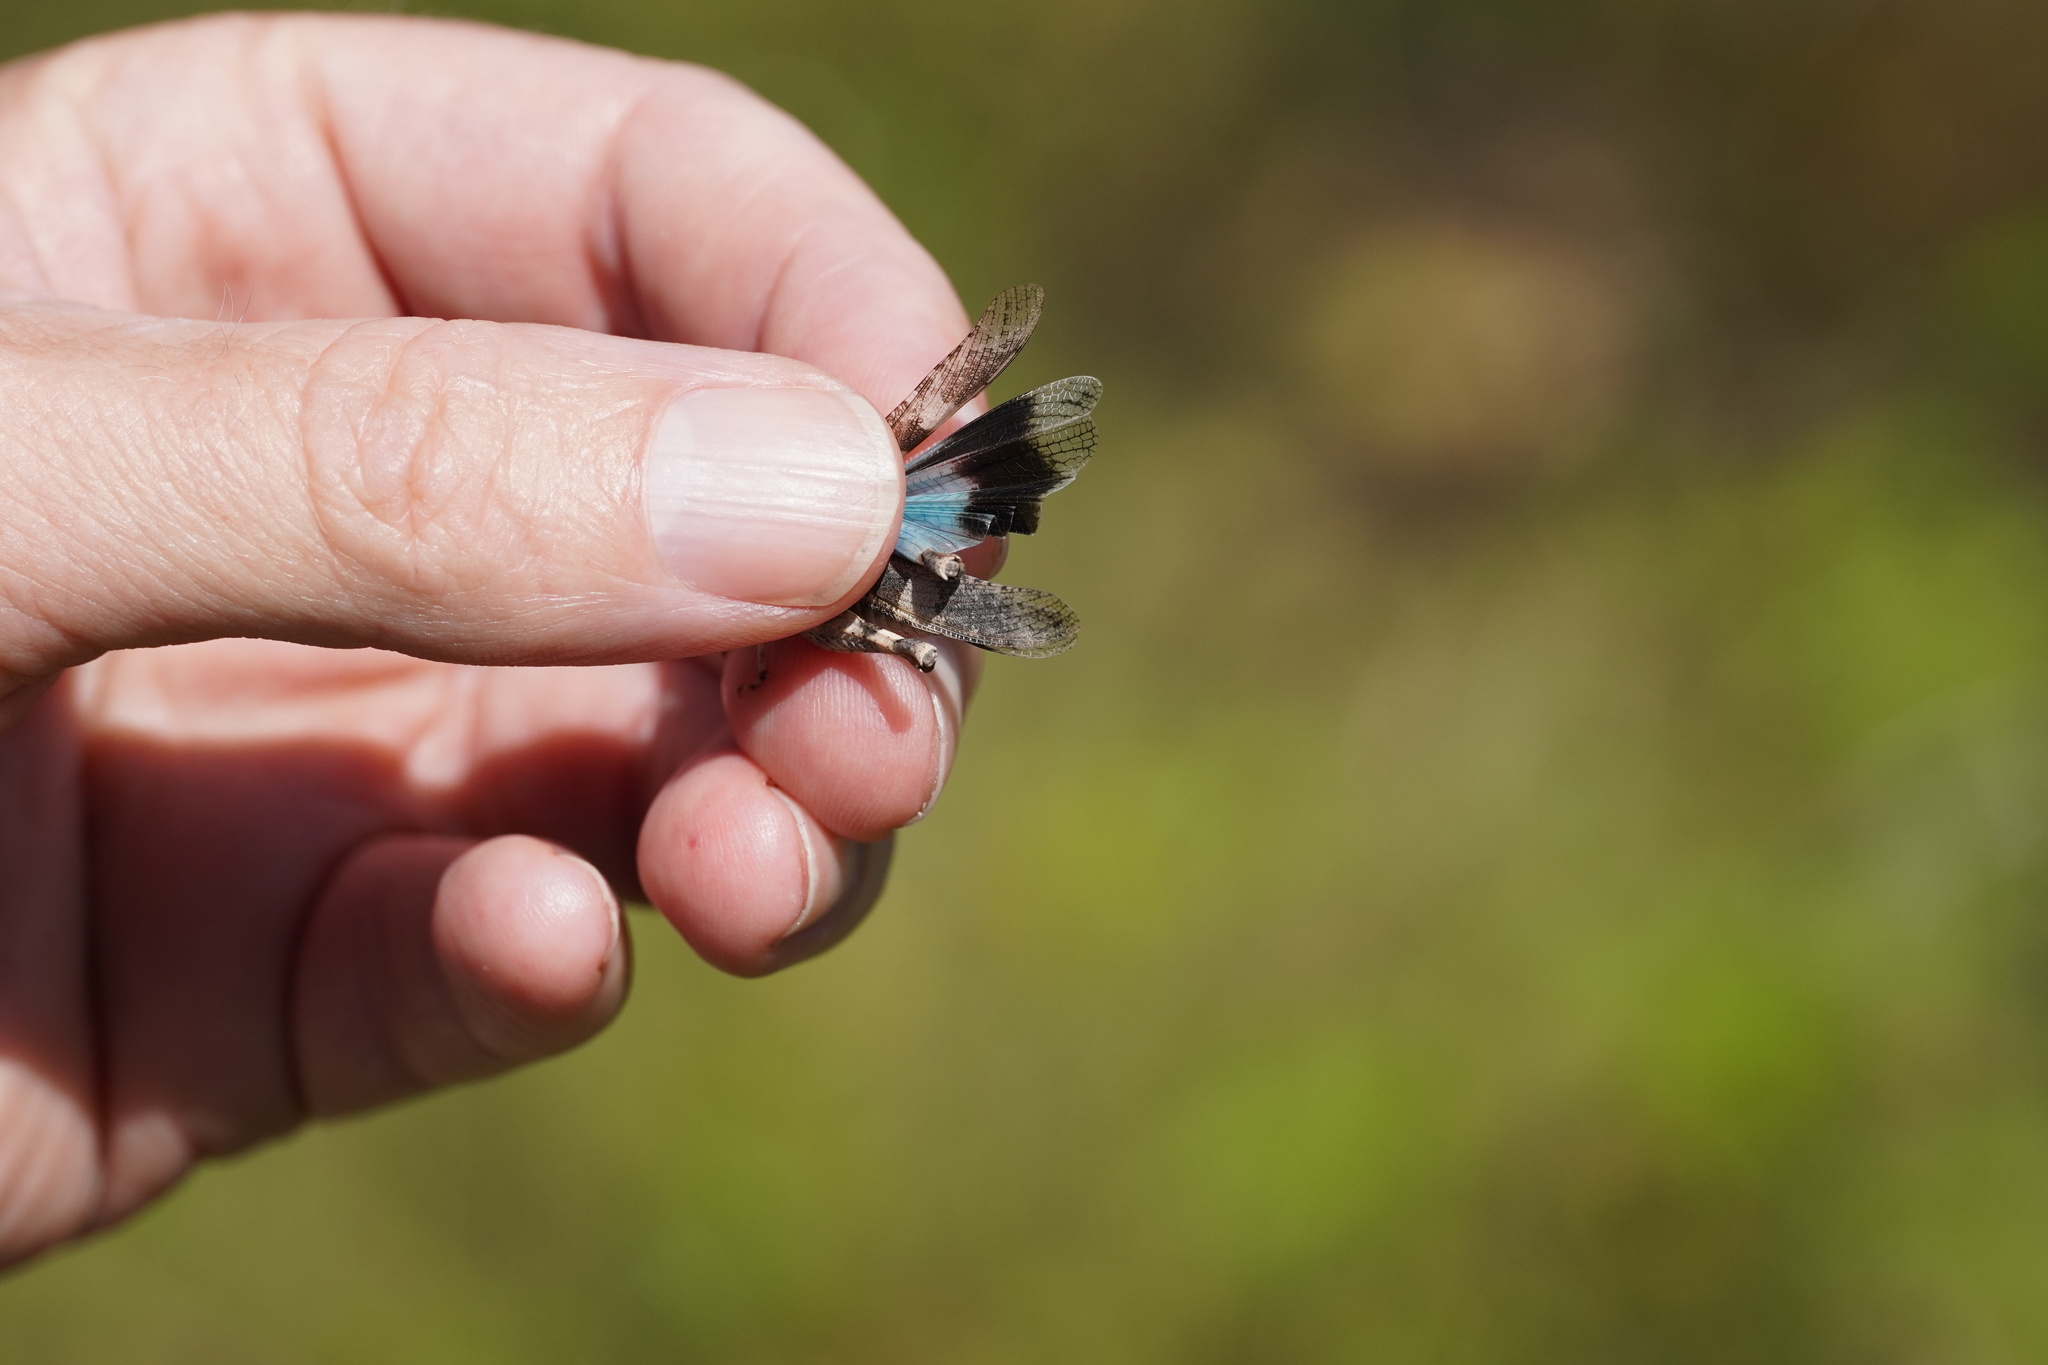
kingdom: Animalia
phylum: Arthropoda
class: Insecta
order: Orthoptera
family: Acrididae
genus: Oedipoda
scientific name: Oedipoda caerulescens
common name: Blue-winged grasshopper
